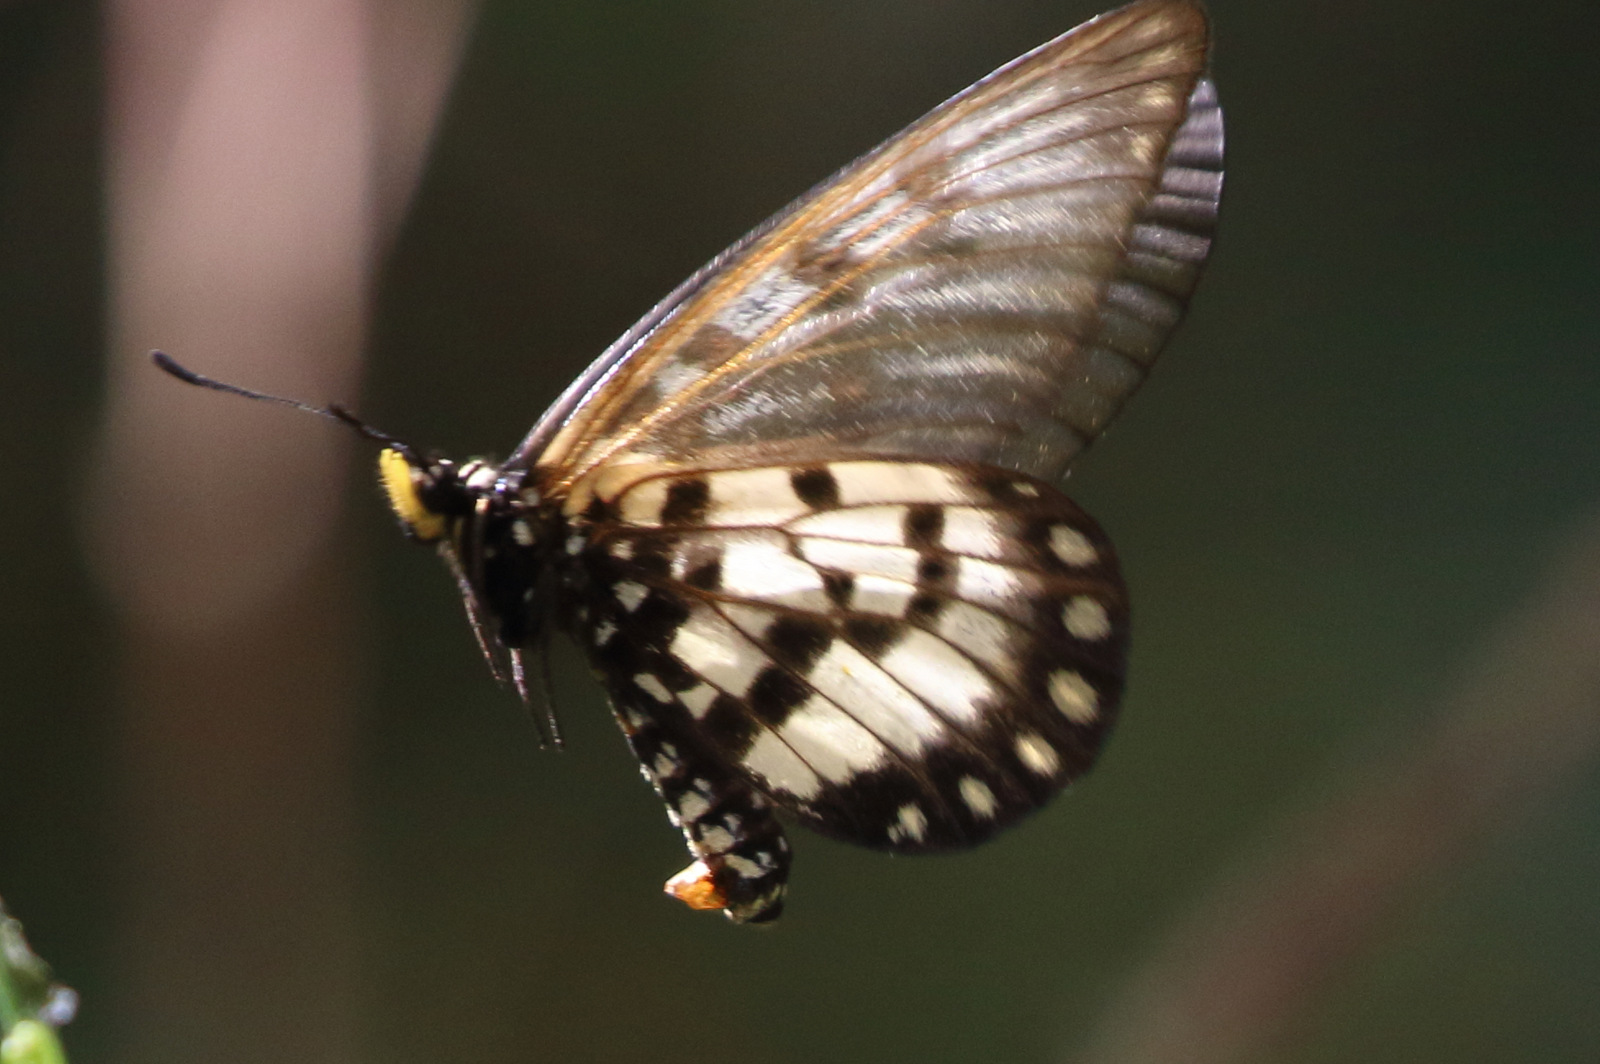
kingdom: Animalia
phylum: Arthropoda
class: Insecta
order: Lepidoptera
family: Nymphalidae
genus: Acraea
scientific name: Acraea andromacha
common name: Glasswing
